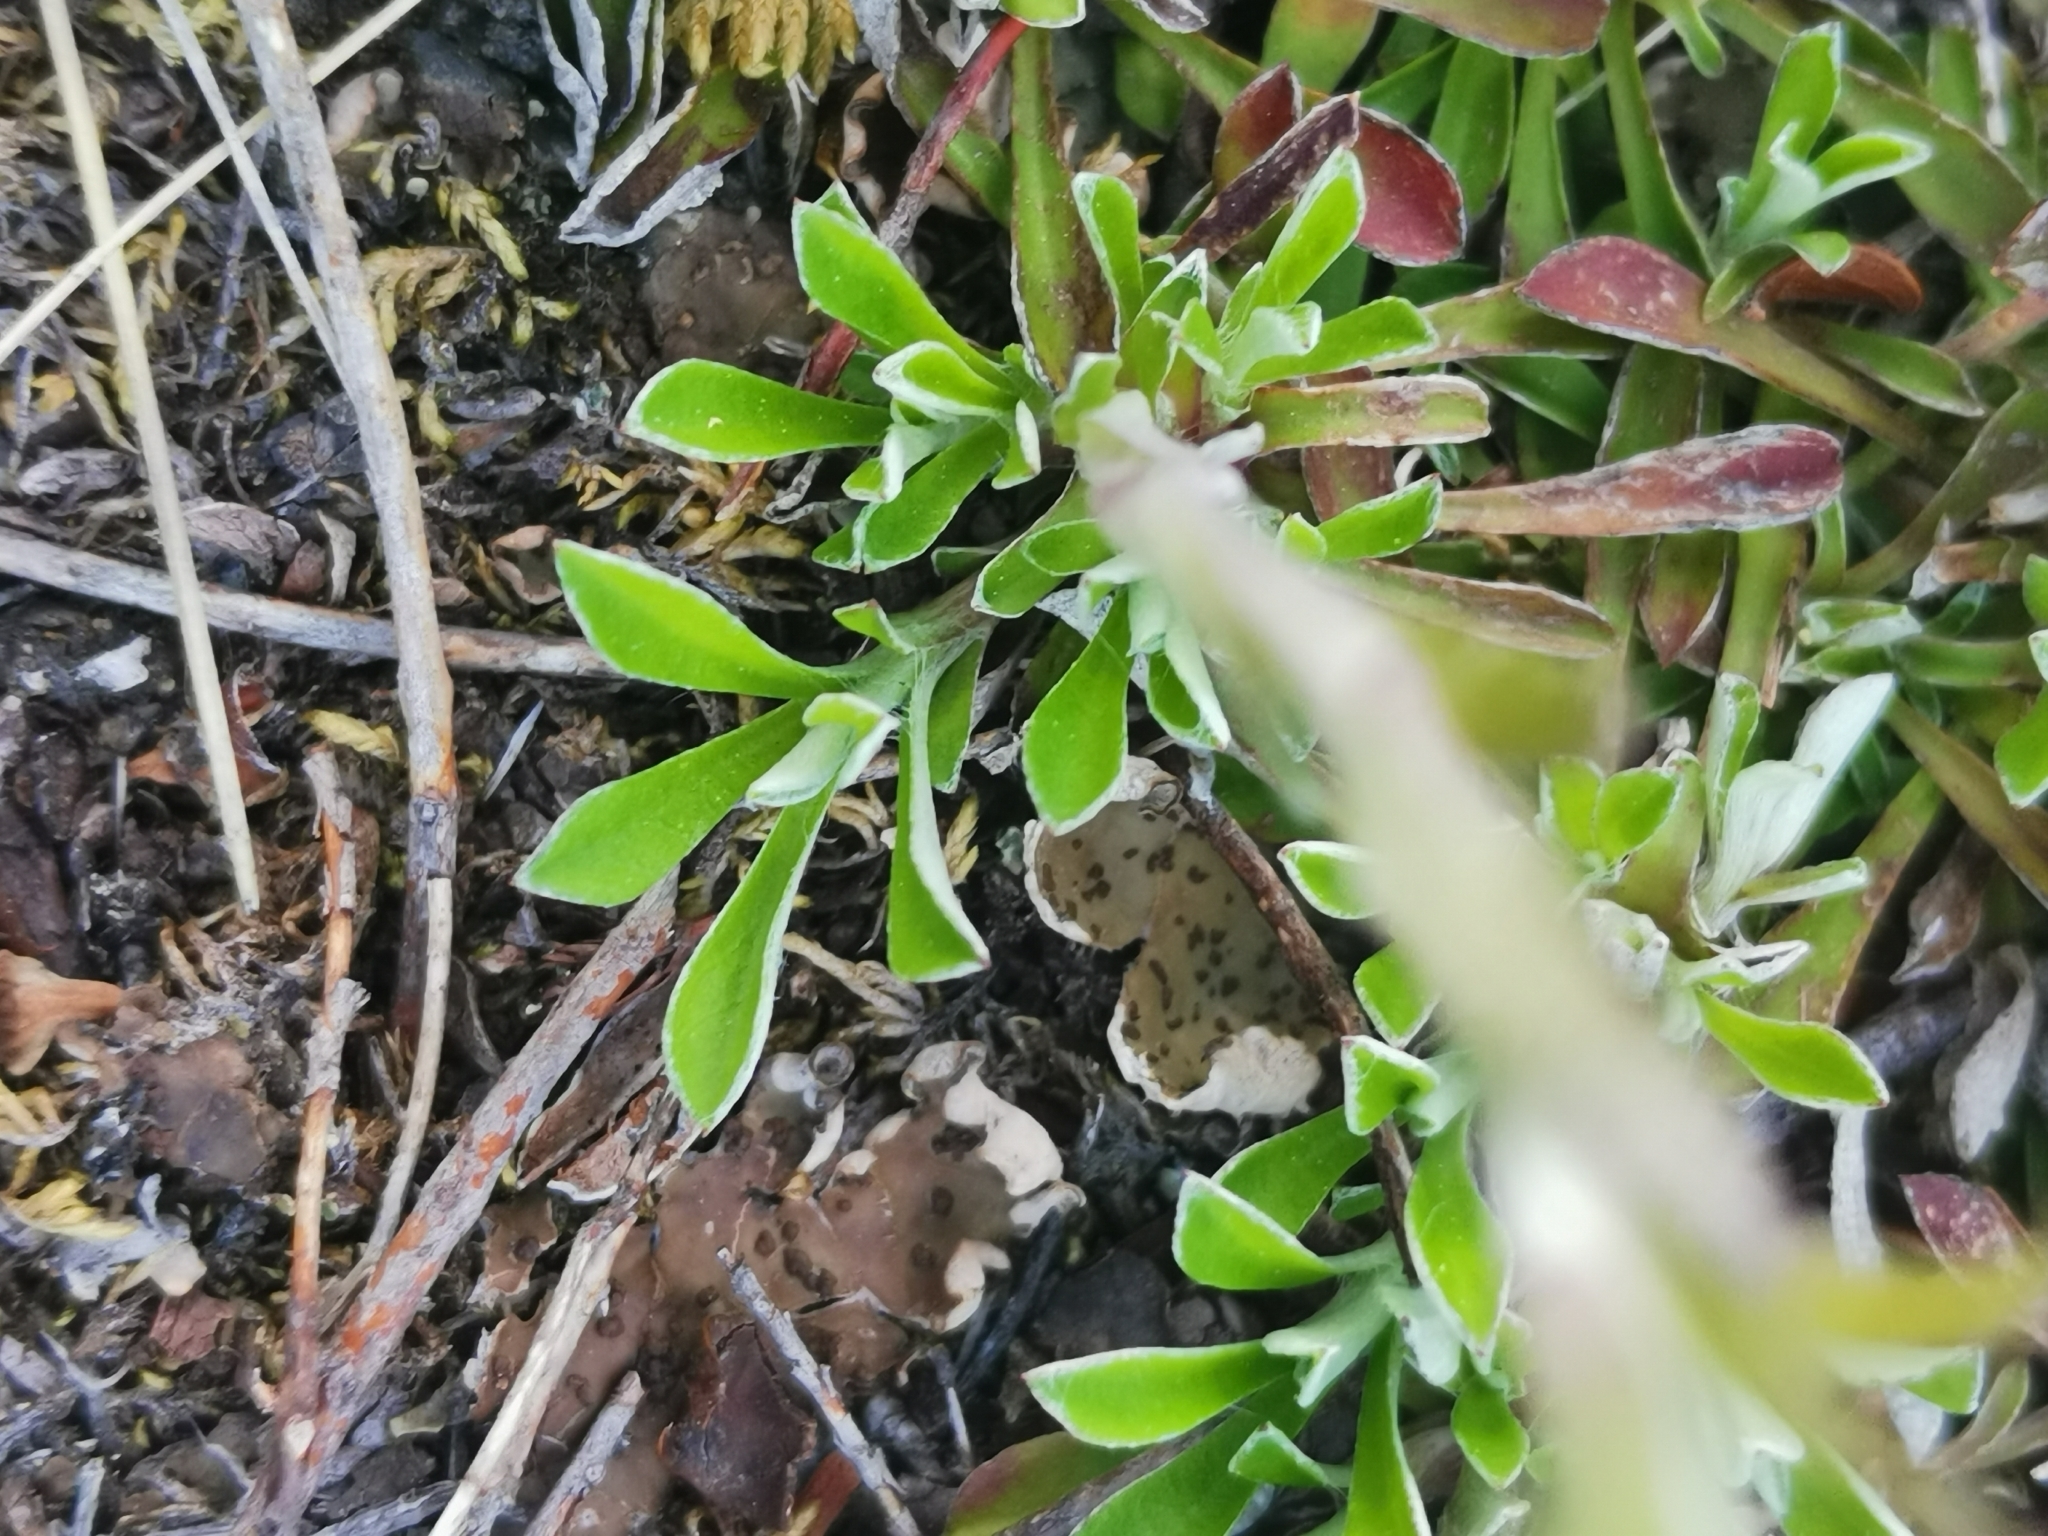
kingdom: Plantae
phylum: Tracheophyta
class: Magnoliopsida
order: Asterales
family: Asteraceae
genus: Antennaria
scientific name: Antennaria dioica
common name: Mountain everlasting
